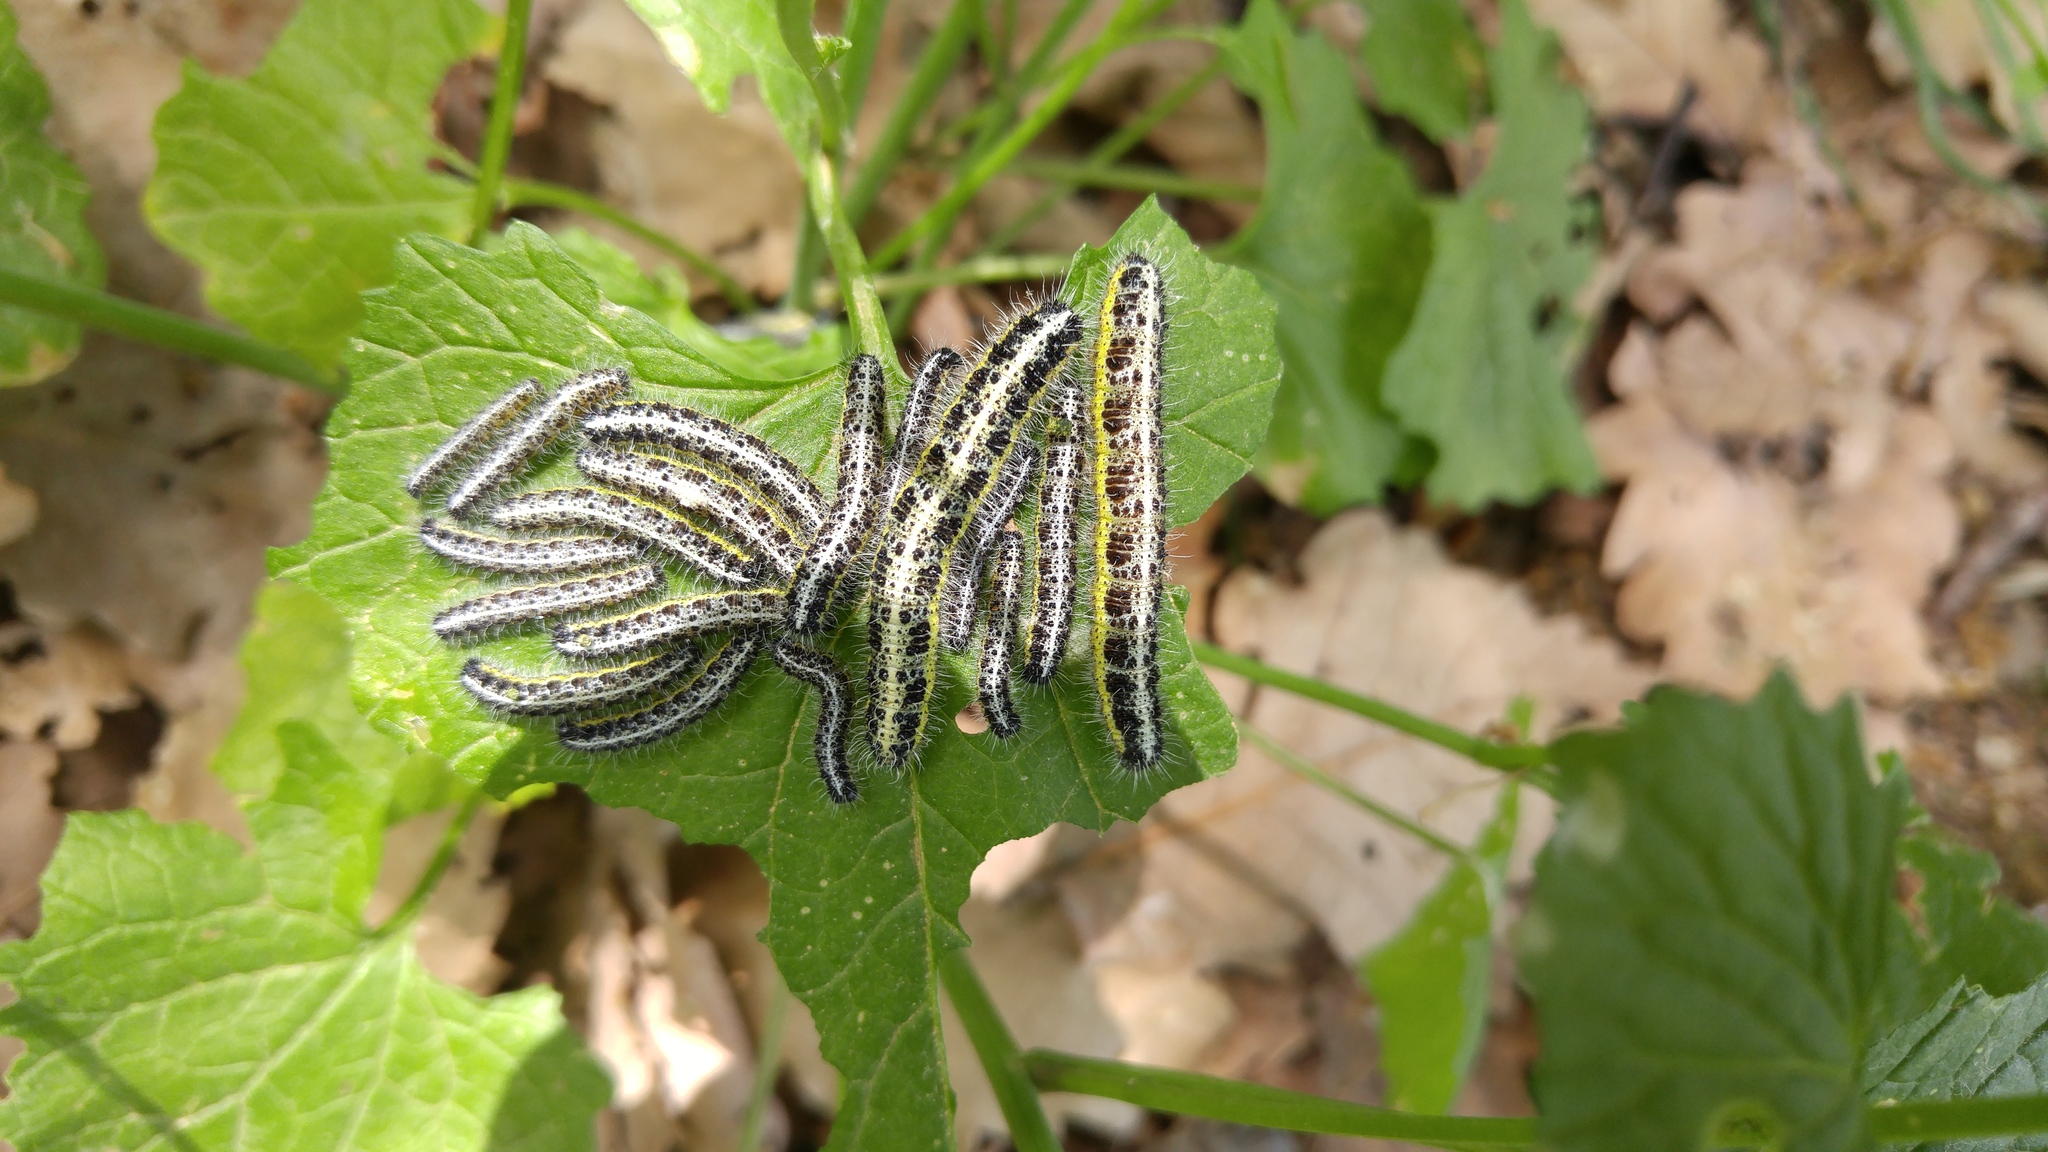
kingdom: Animalia
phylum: Arthropoda
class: Insecta
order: Lepidoptera
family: Pieridae
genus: Pieris
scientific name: Pieris brassicae
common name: Large white
